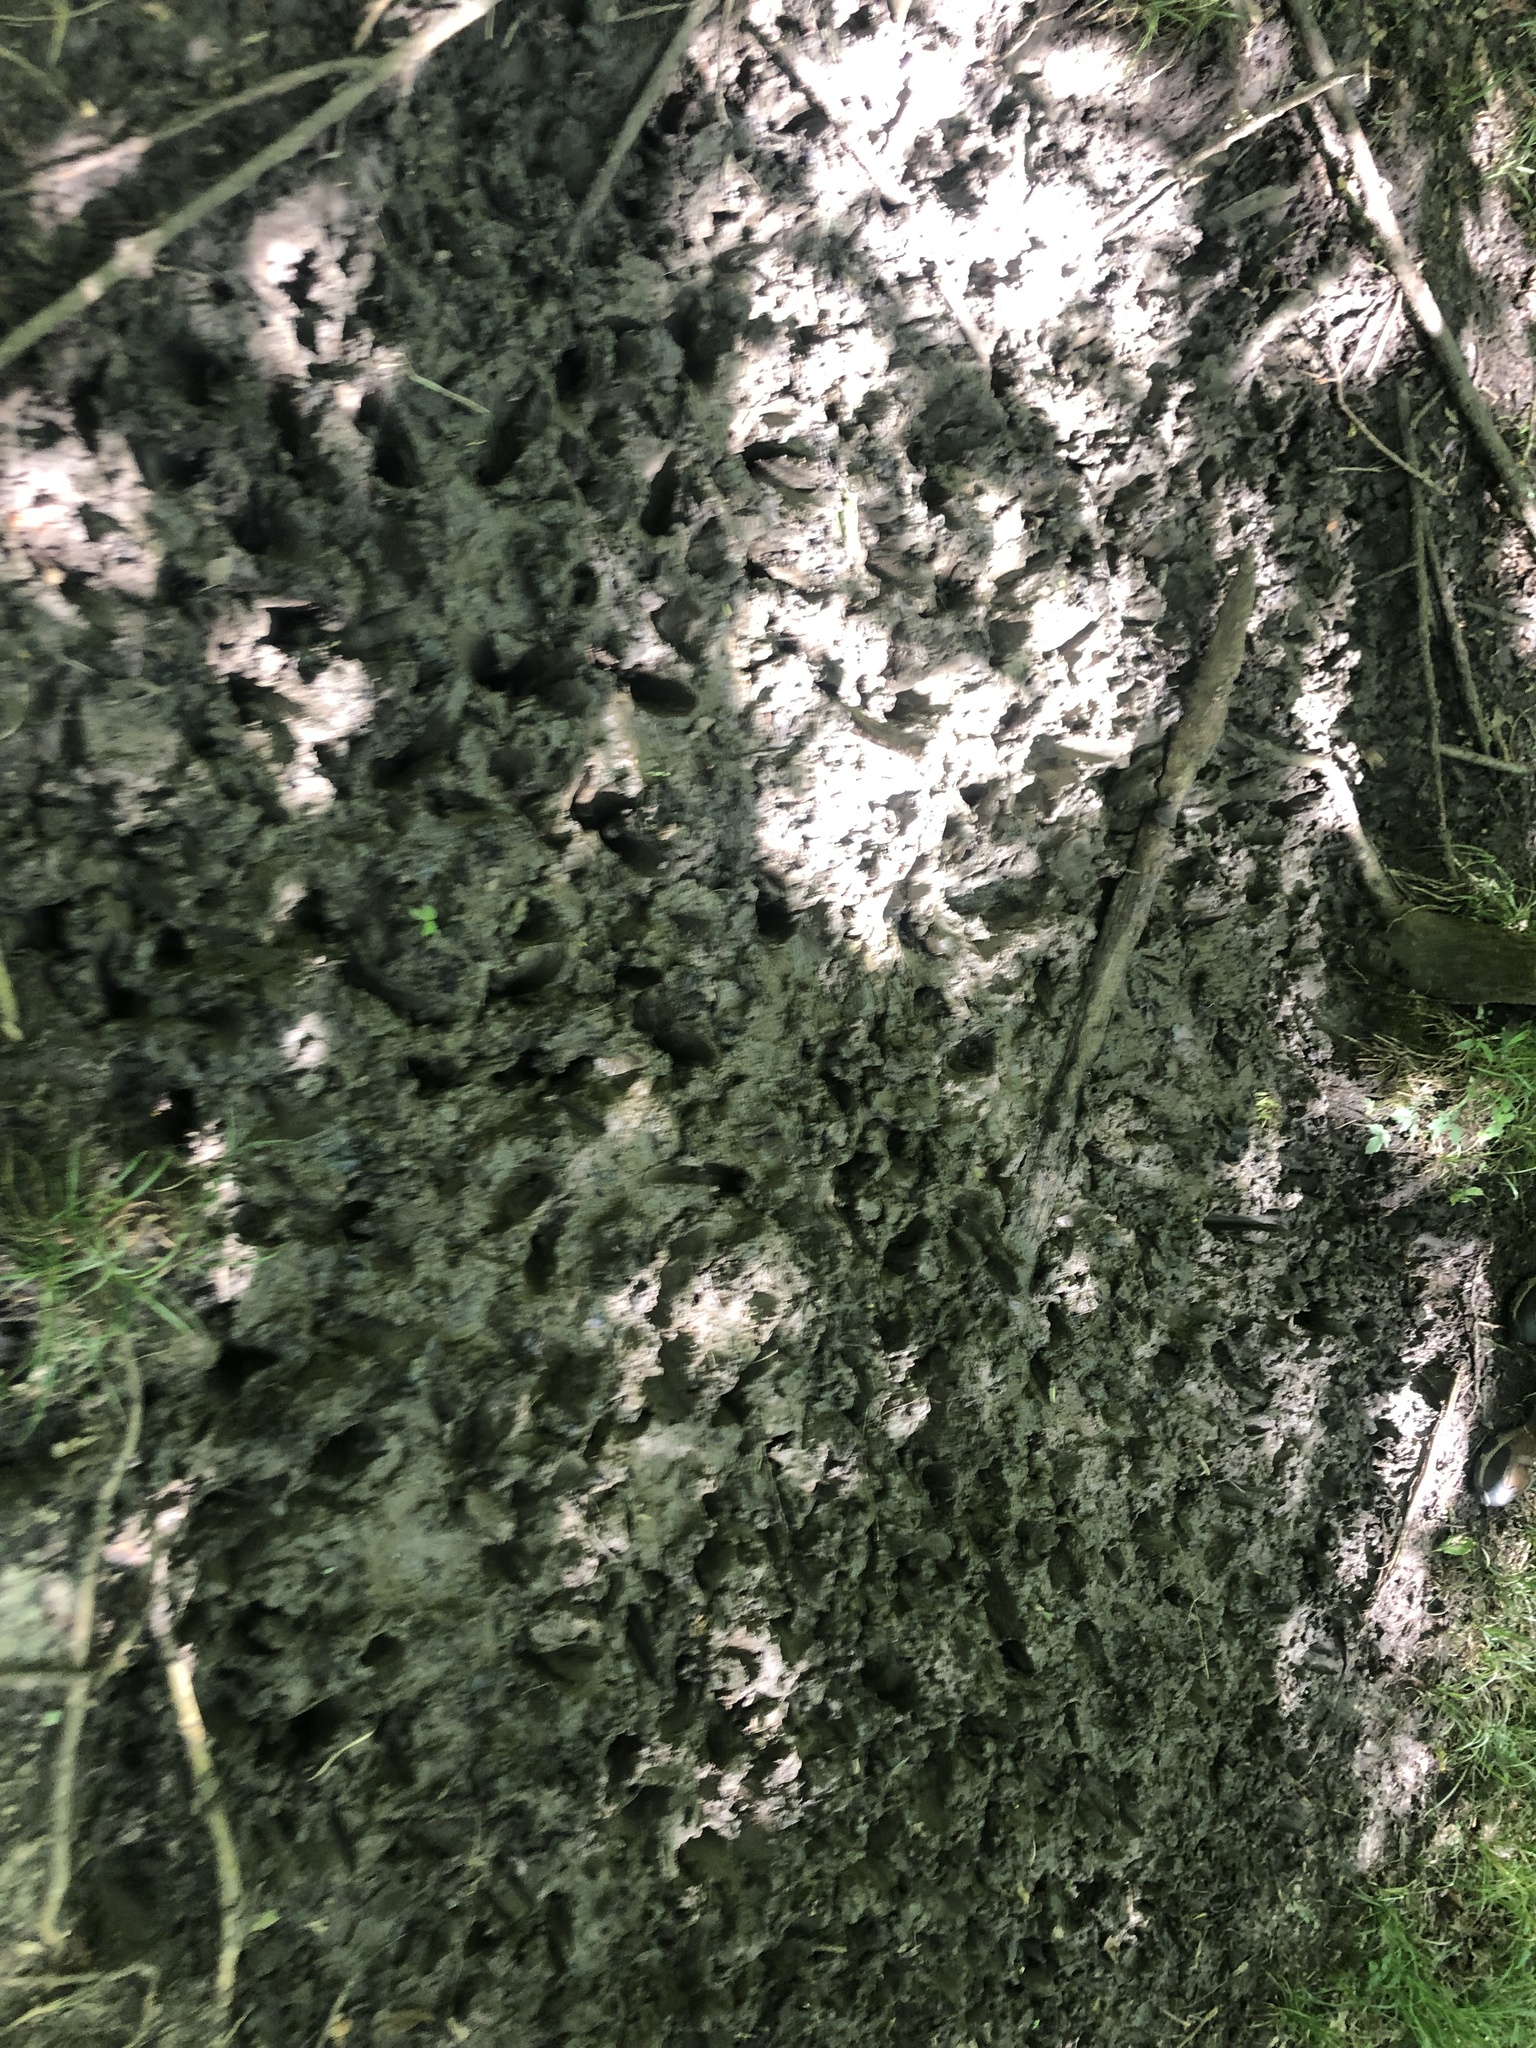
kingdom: Animalia
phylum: Chordata
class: Mammalia
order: Artiodactyla
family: Suidae
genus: Sus
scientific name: Sus scrofa
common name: Wild boar
